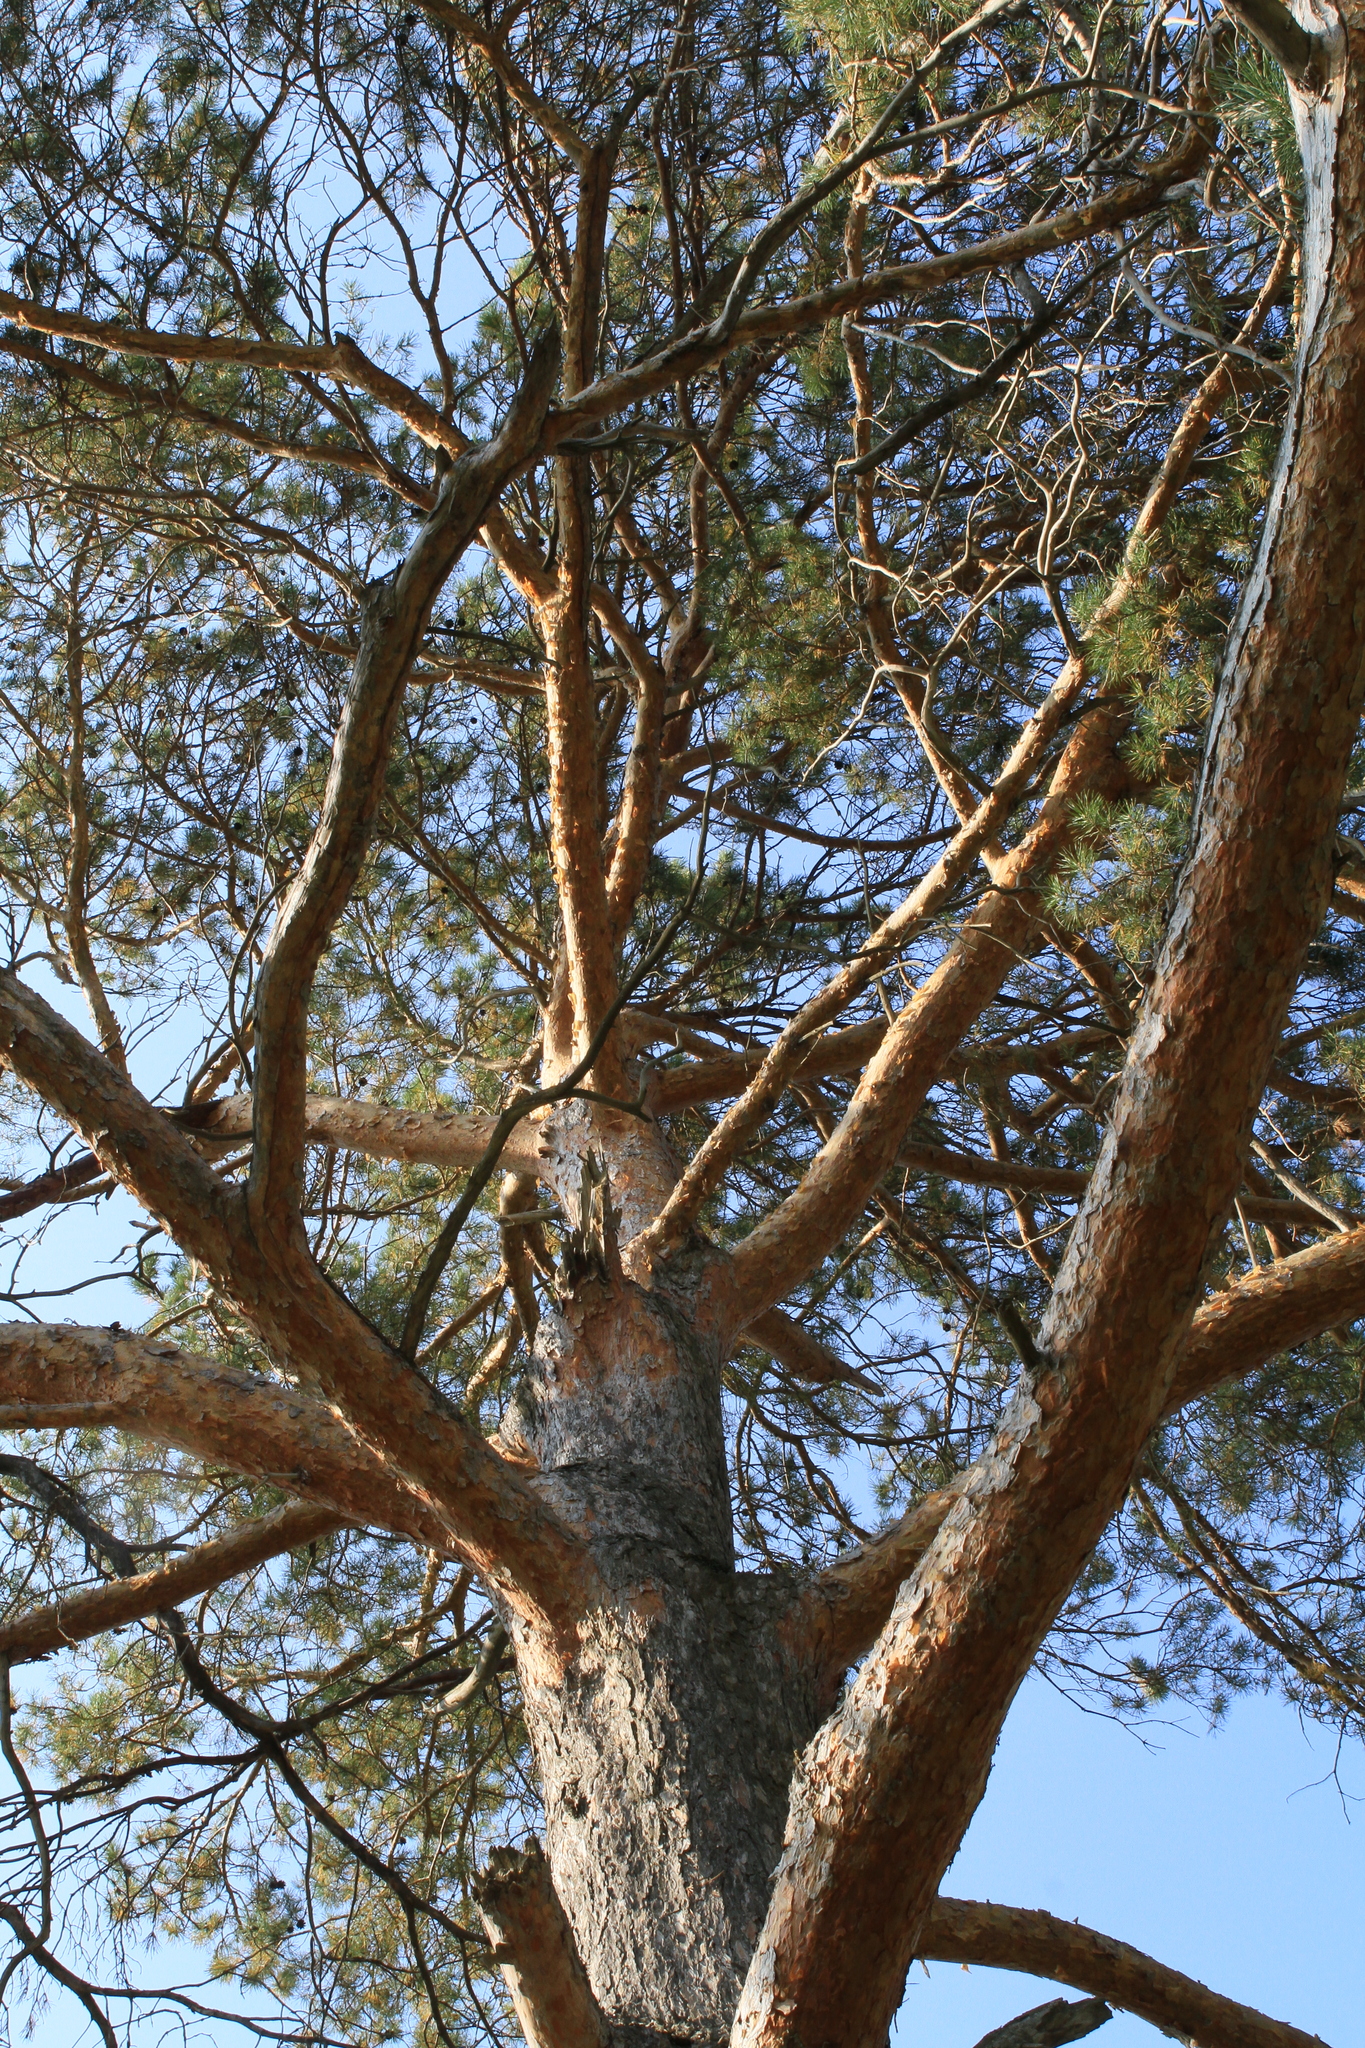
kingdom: Plantae
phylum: Tracheophyta
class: Pinopsida
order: Pinales
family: Pinaceae
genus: Pinus
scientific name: Pinus sylvestris
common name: Scots pine
